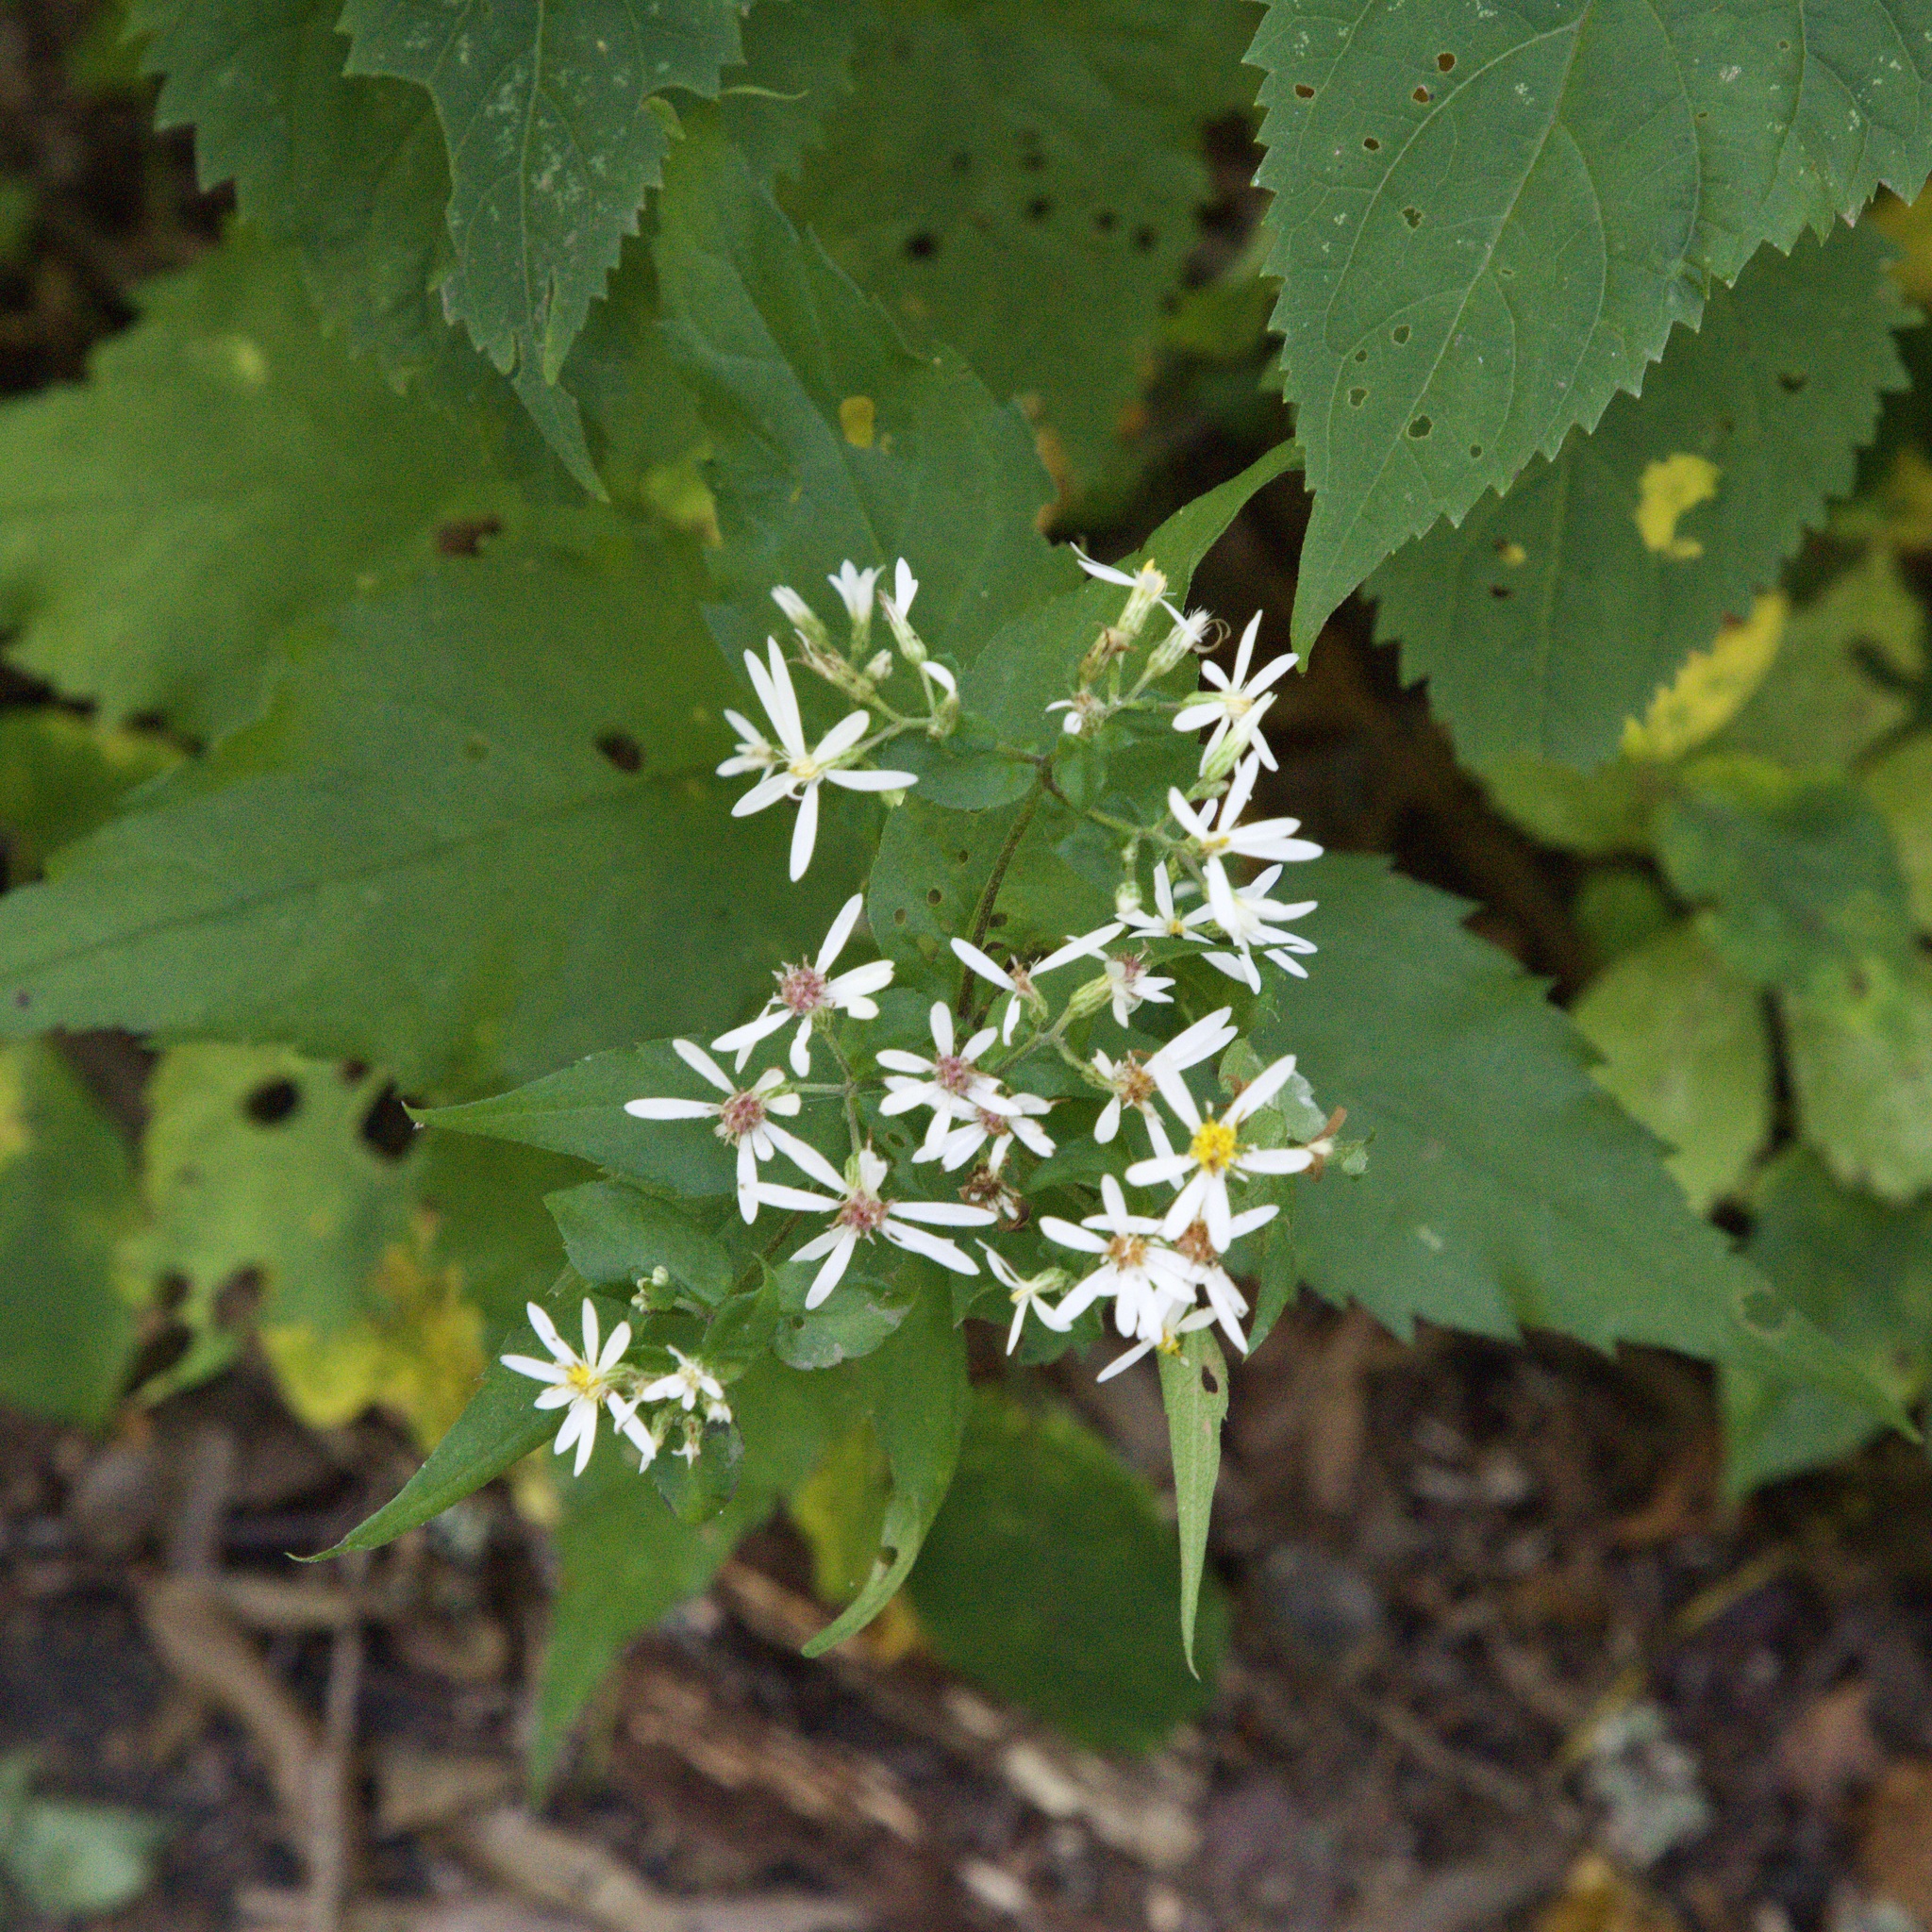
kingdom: Plantae
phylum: Tracheophyta
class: Magnoliopsida
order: Asterales
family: Asteraceae
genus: Eurybia
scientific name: Eurybia divaricata
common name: White wood aster
